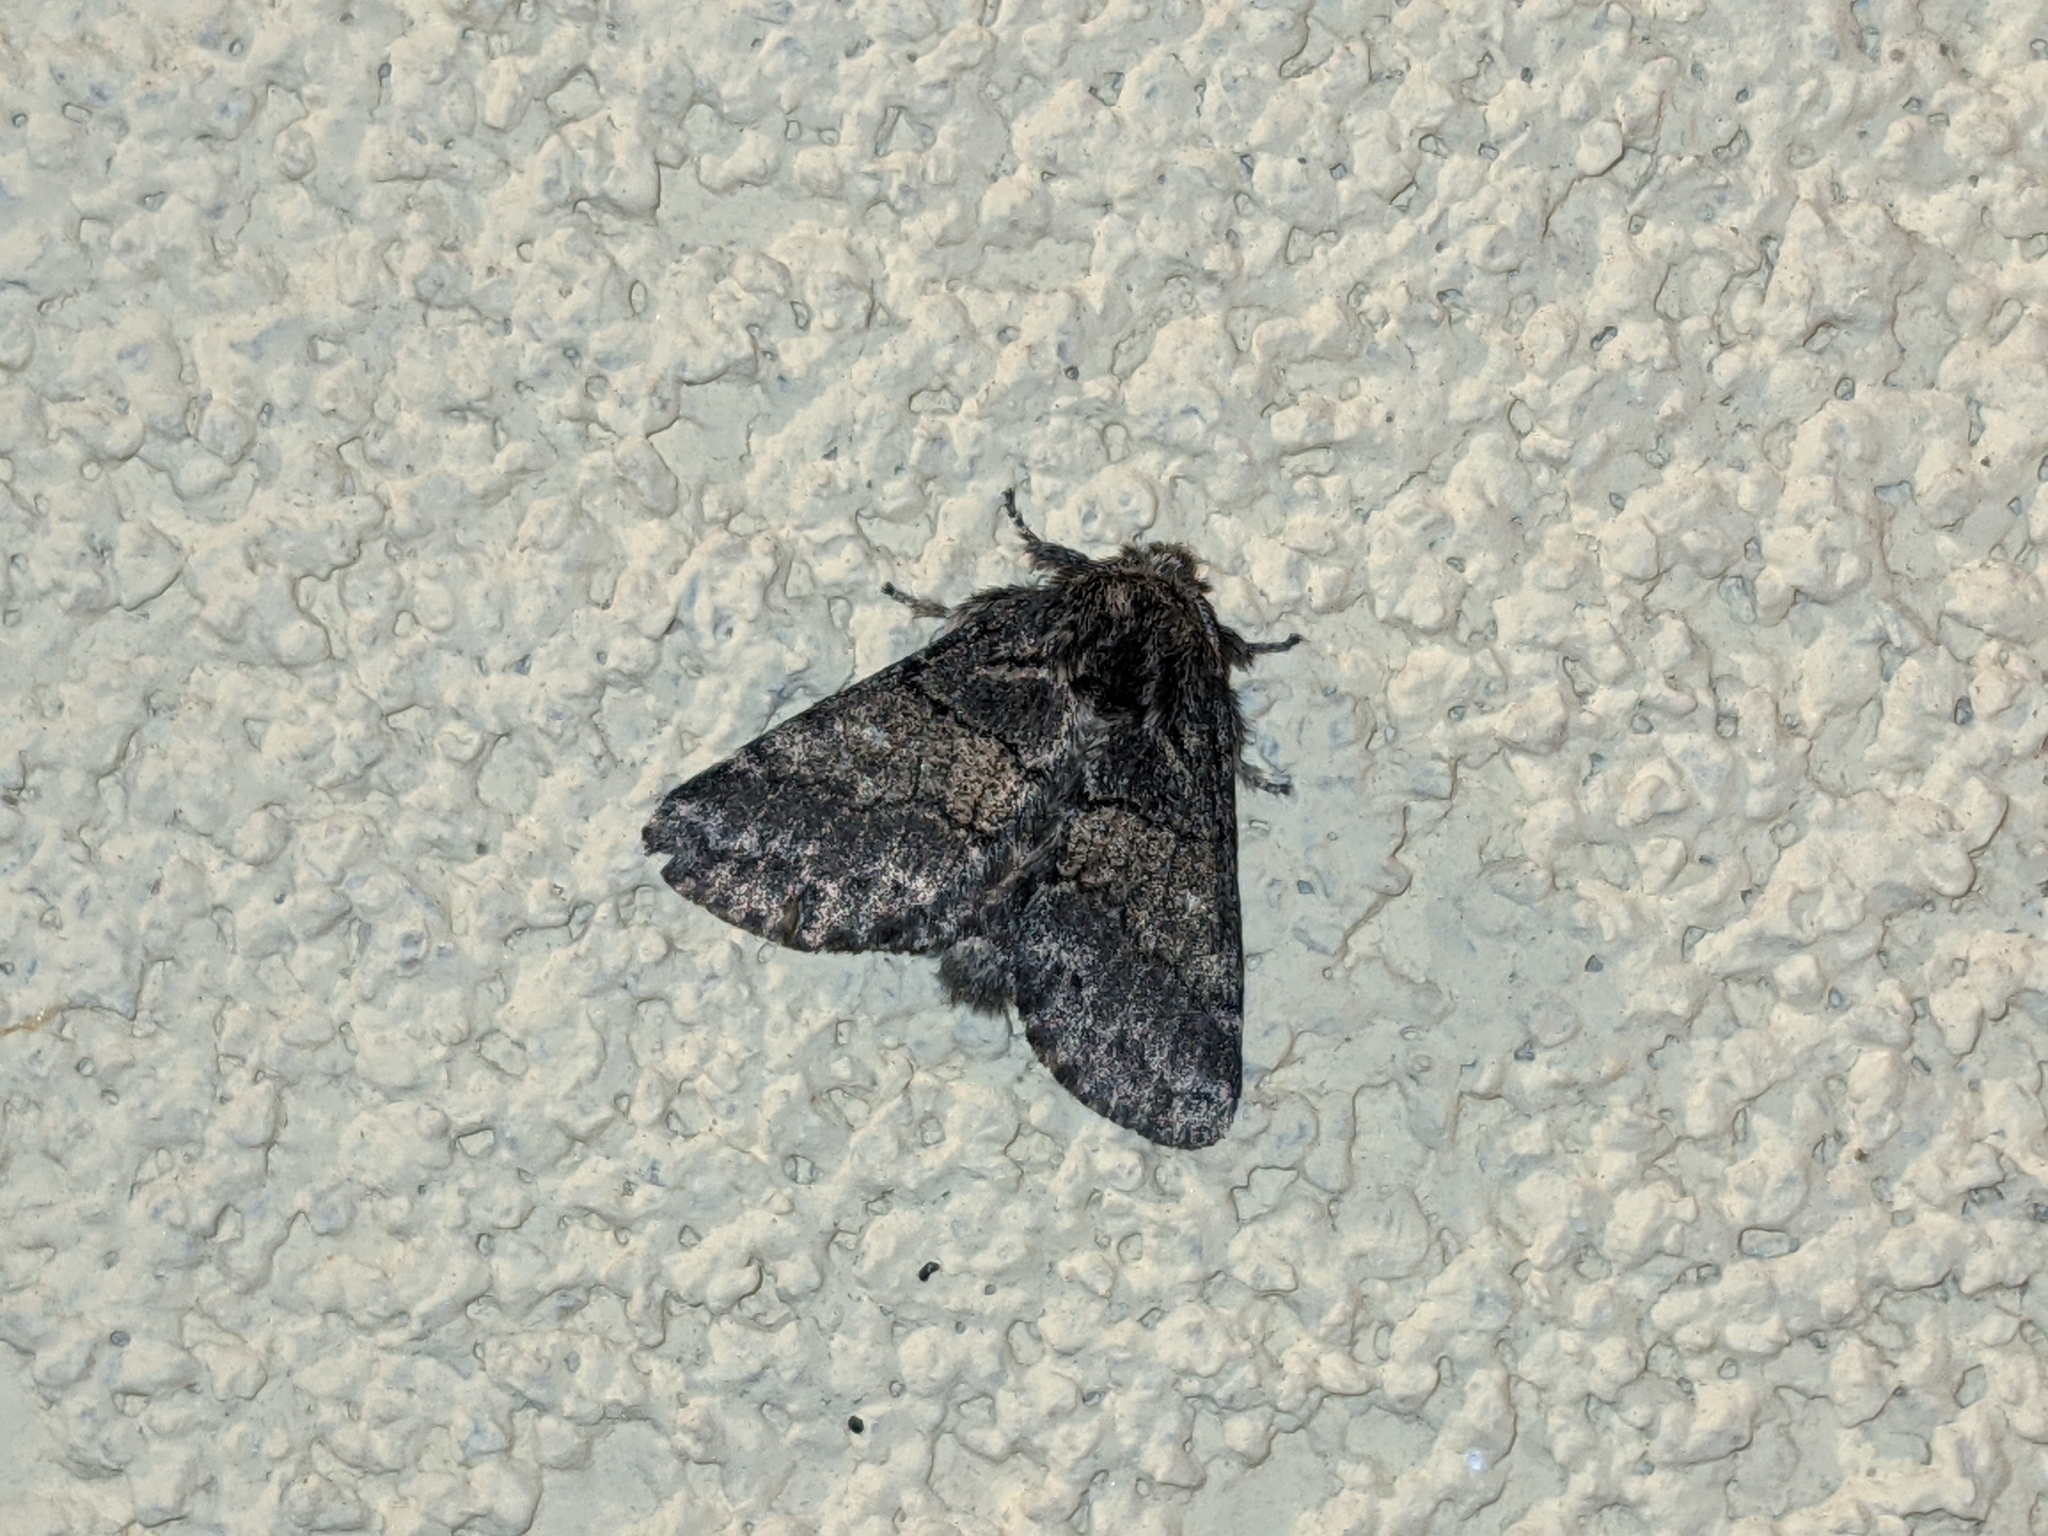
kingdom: Animalia
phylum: Arthropoda
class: Insecta
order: Lepidoptera
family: Notodontidae
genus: Gluphisia
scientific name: Gluphisia crenata
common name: Dusky marbled brown
